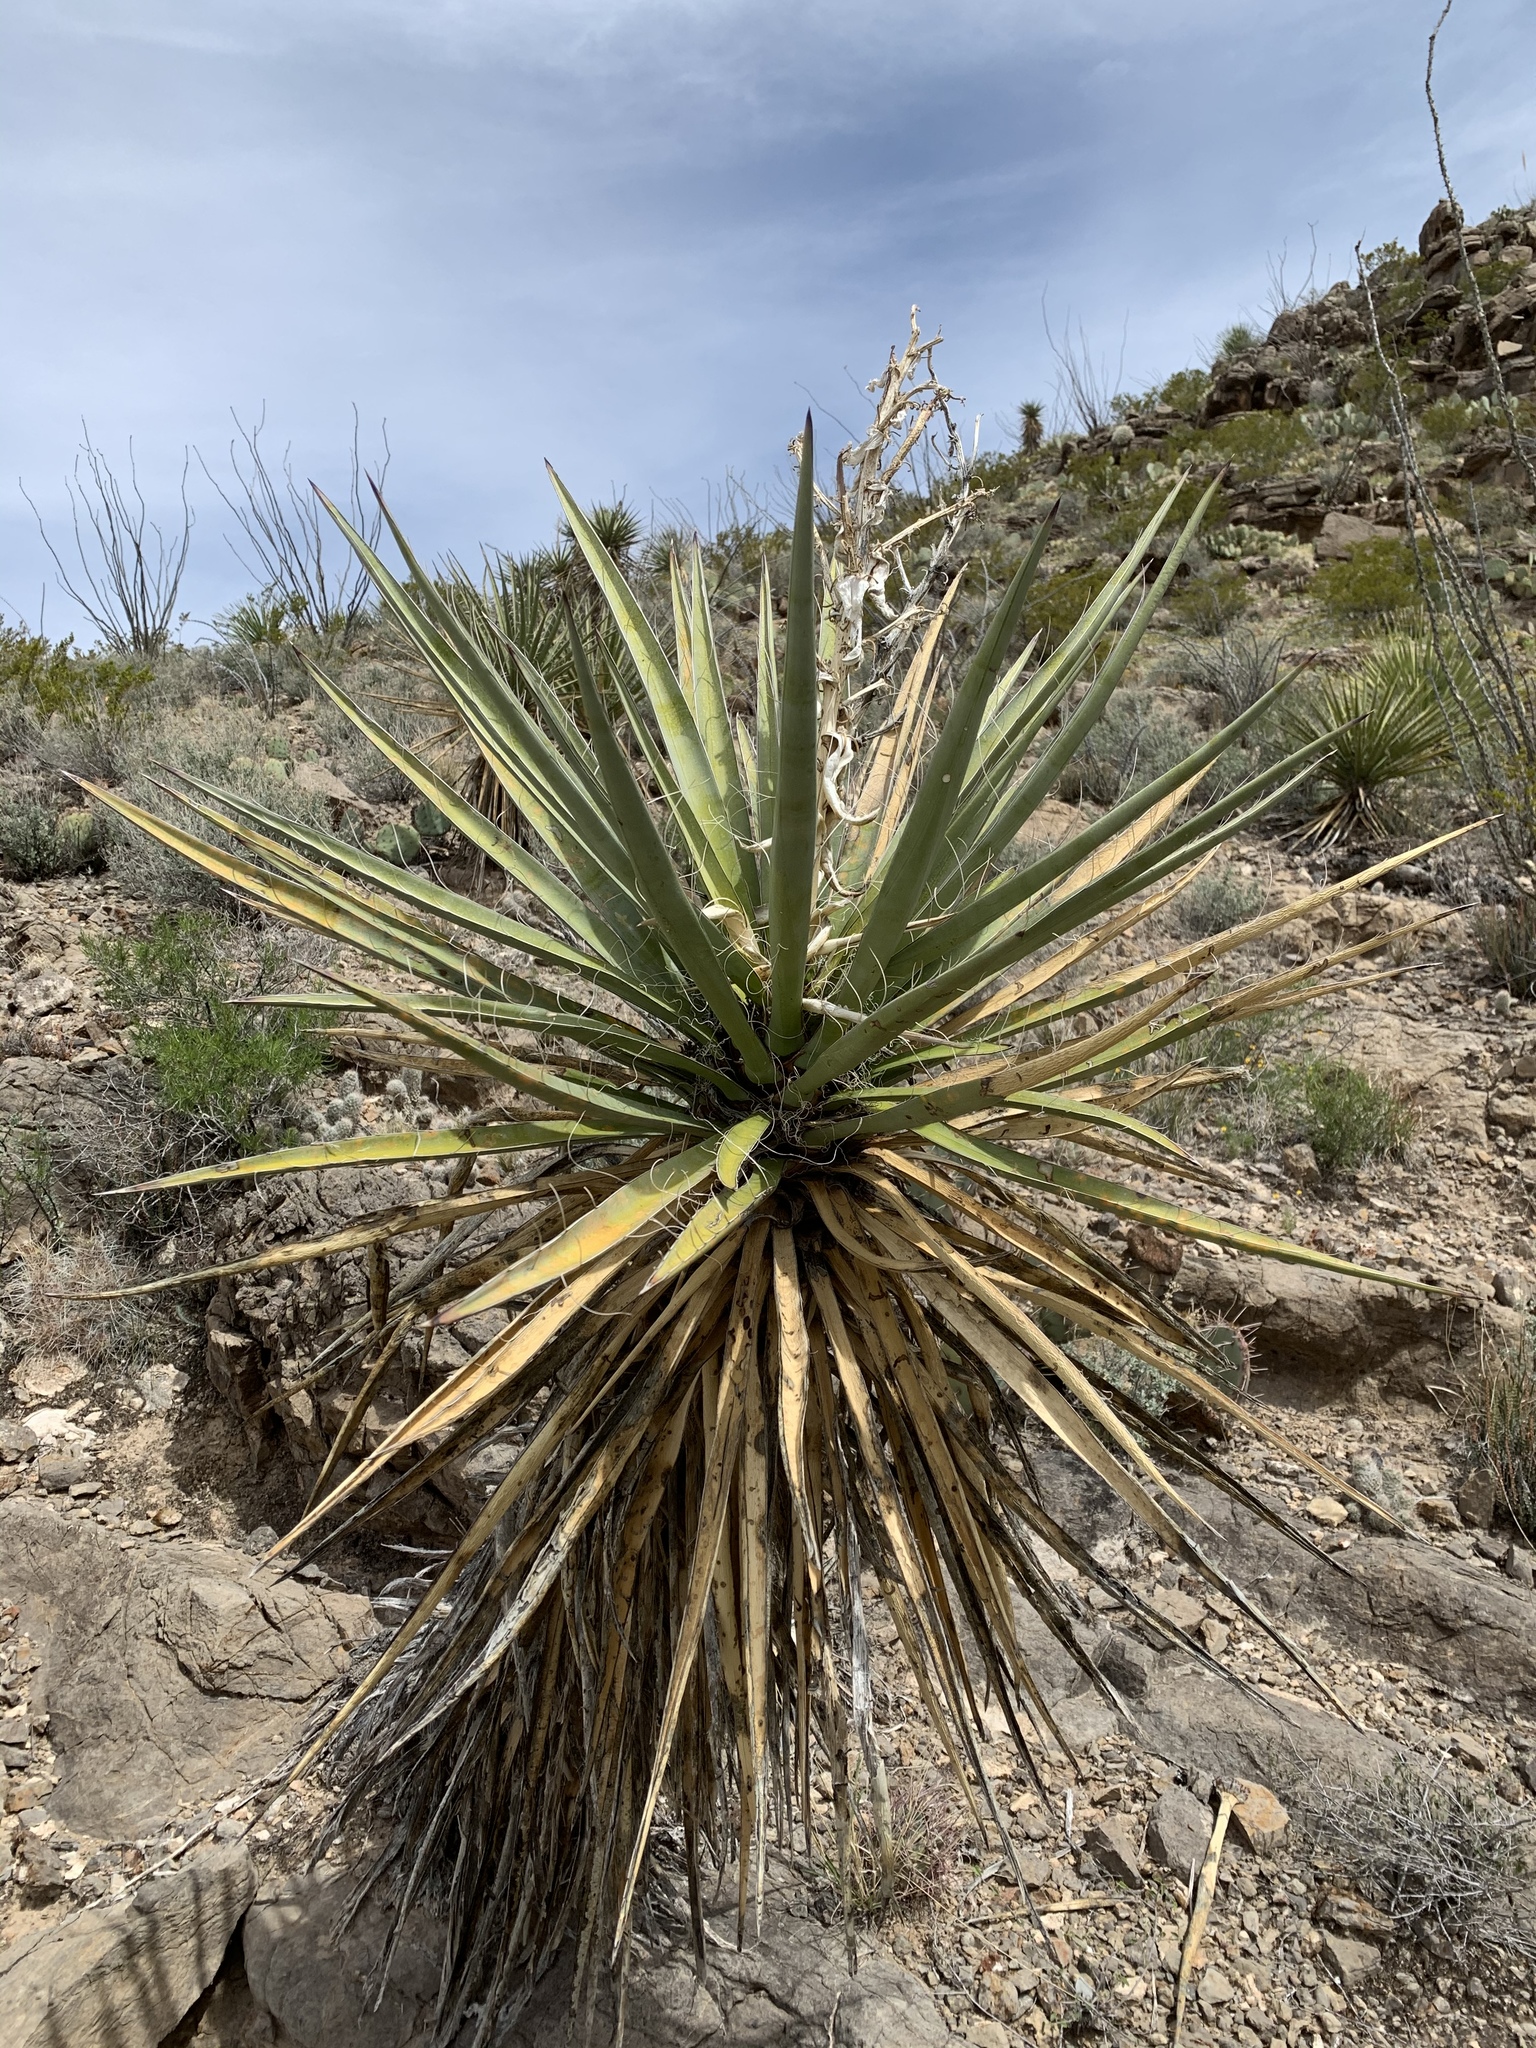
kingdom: Plantae
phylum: Tracheophyta
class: Liliopsida
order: Asparagales
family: Asparagaceae
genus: Yucca
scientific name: Yucca treculiana
